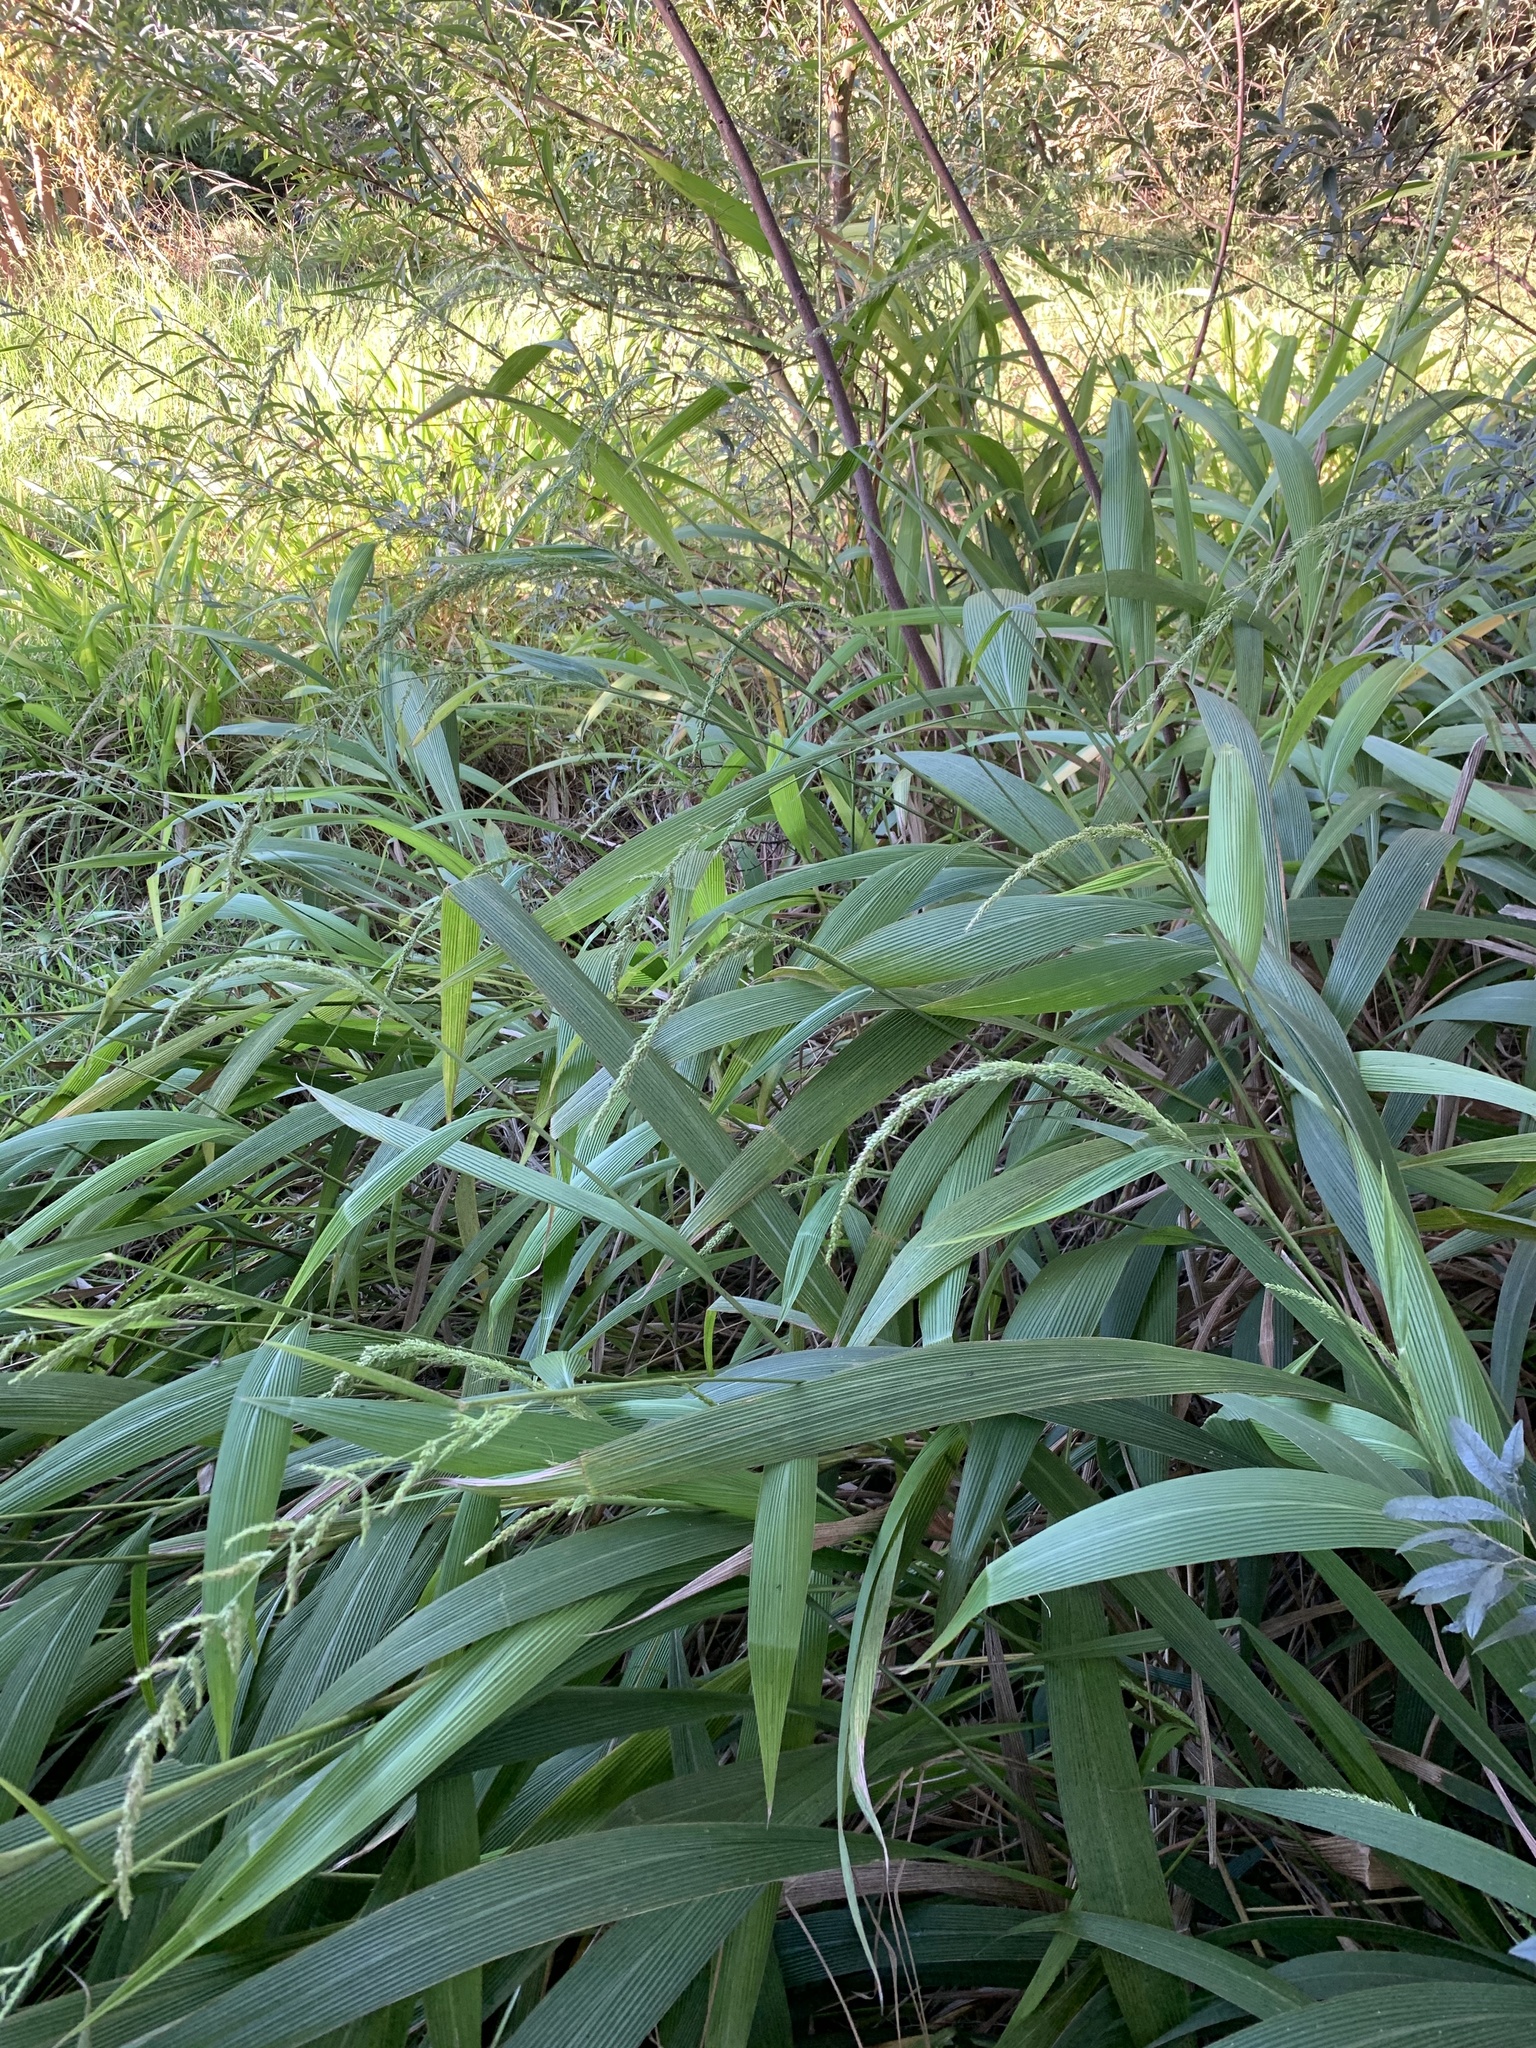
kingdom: Plantae
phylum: Tracheophyta
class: Liliopsida
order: Poales
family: Poaceae
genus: Setaria
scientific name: Setaria megaphylla
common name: Bigleaf bristlegrass
